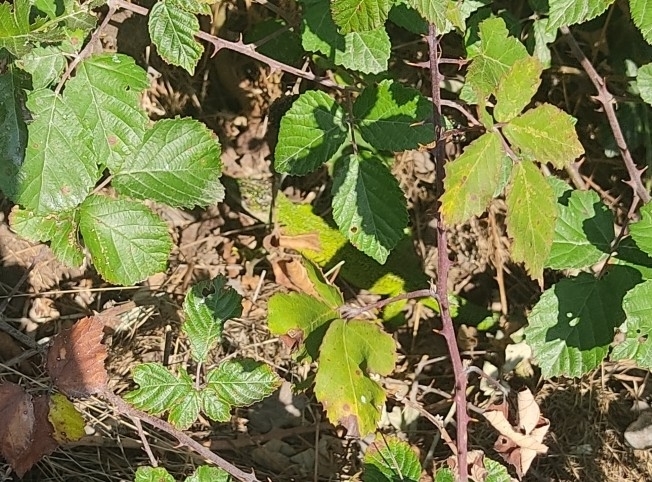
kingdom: Animalia
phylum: Chordata
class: Squamata
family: Lacertidae
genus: Lacerta
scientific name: Lacerta bilineata
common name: Western green lizard
